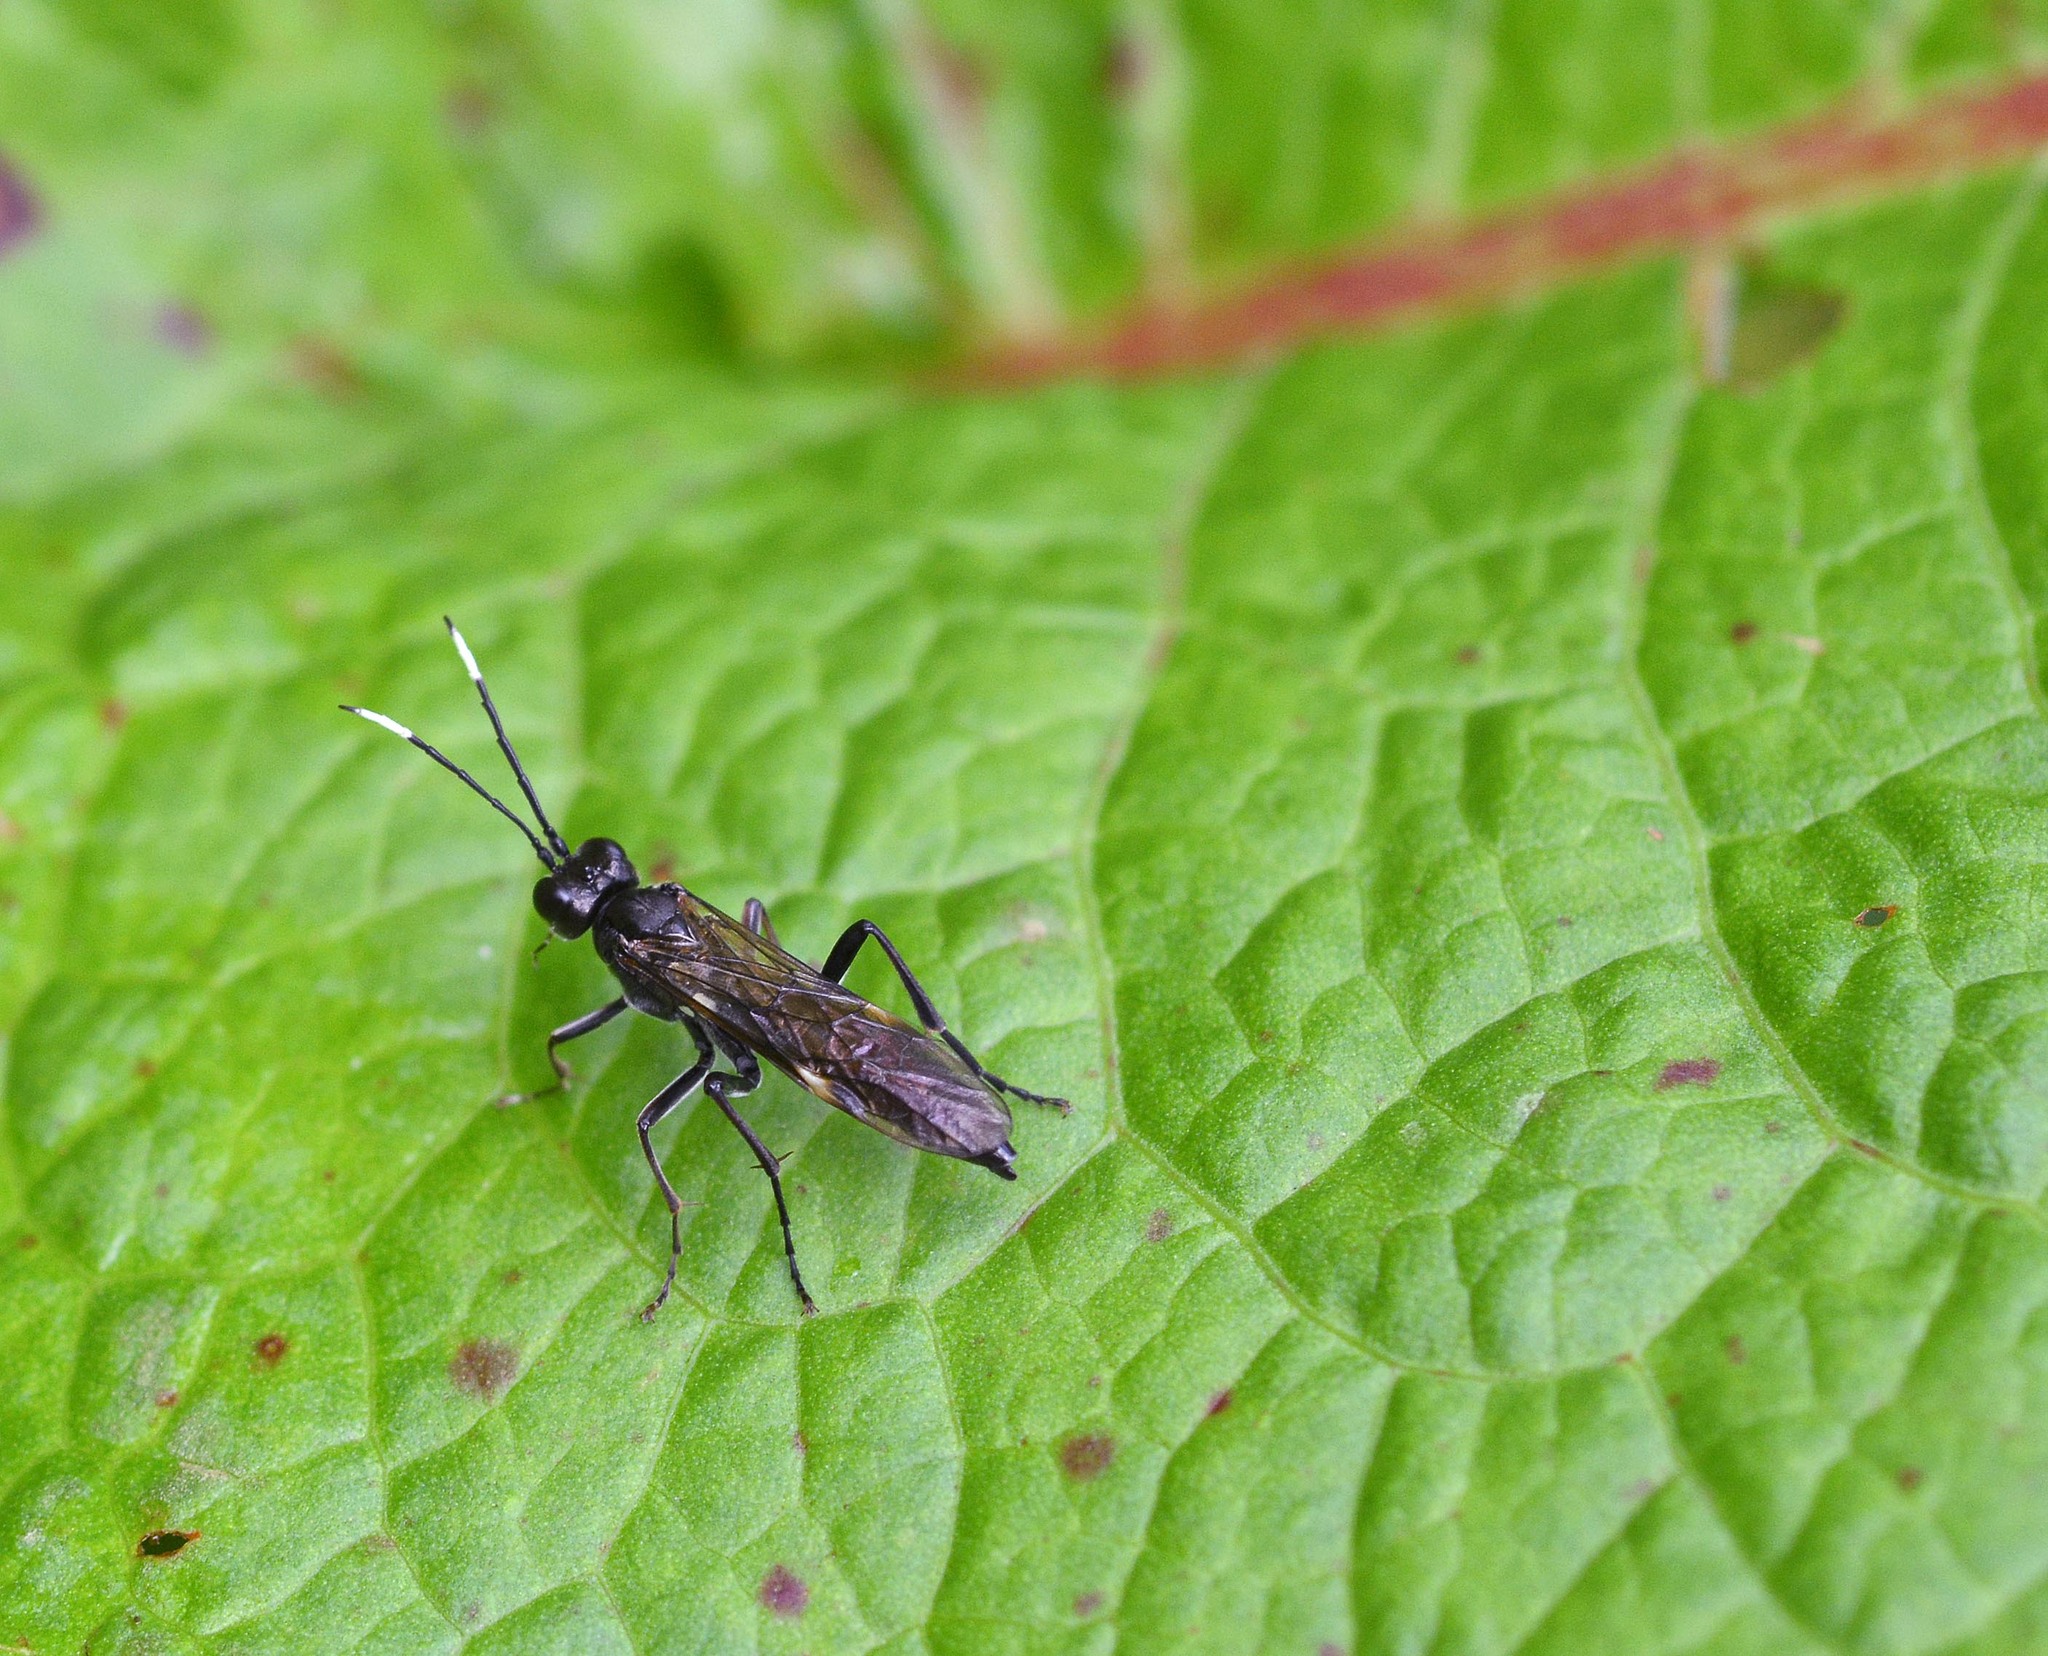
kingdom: Animalia
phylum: Arthropoda
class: Insecta
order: Hymenoptera
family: Tenthredinidae
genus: Tenthredo
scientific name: Tenthredo livida
